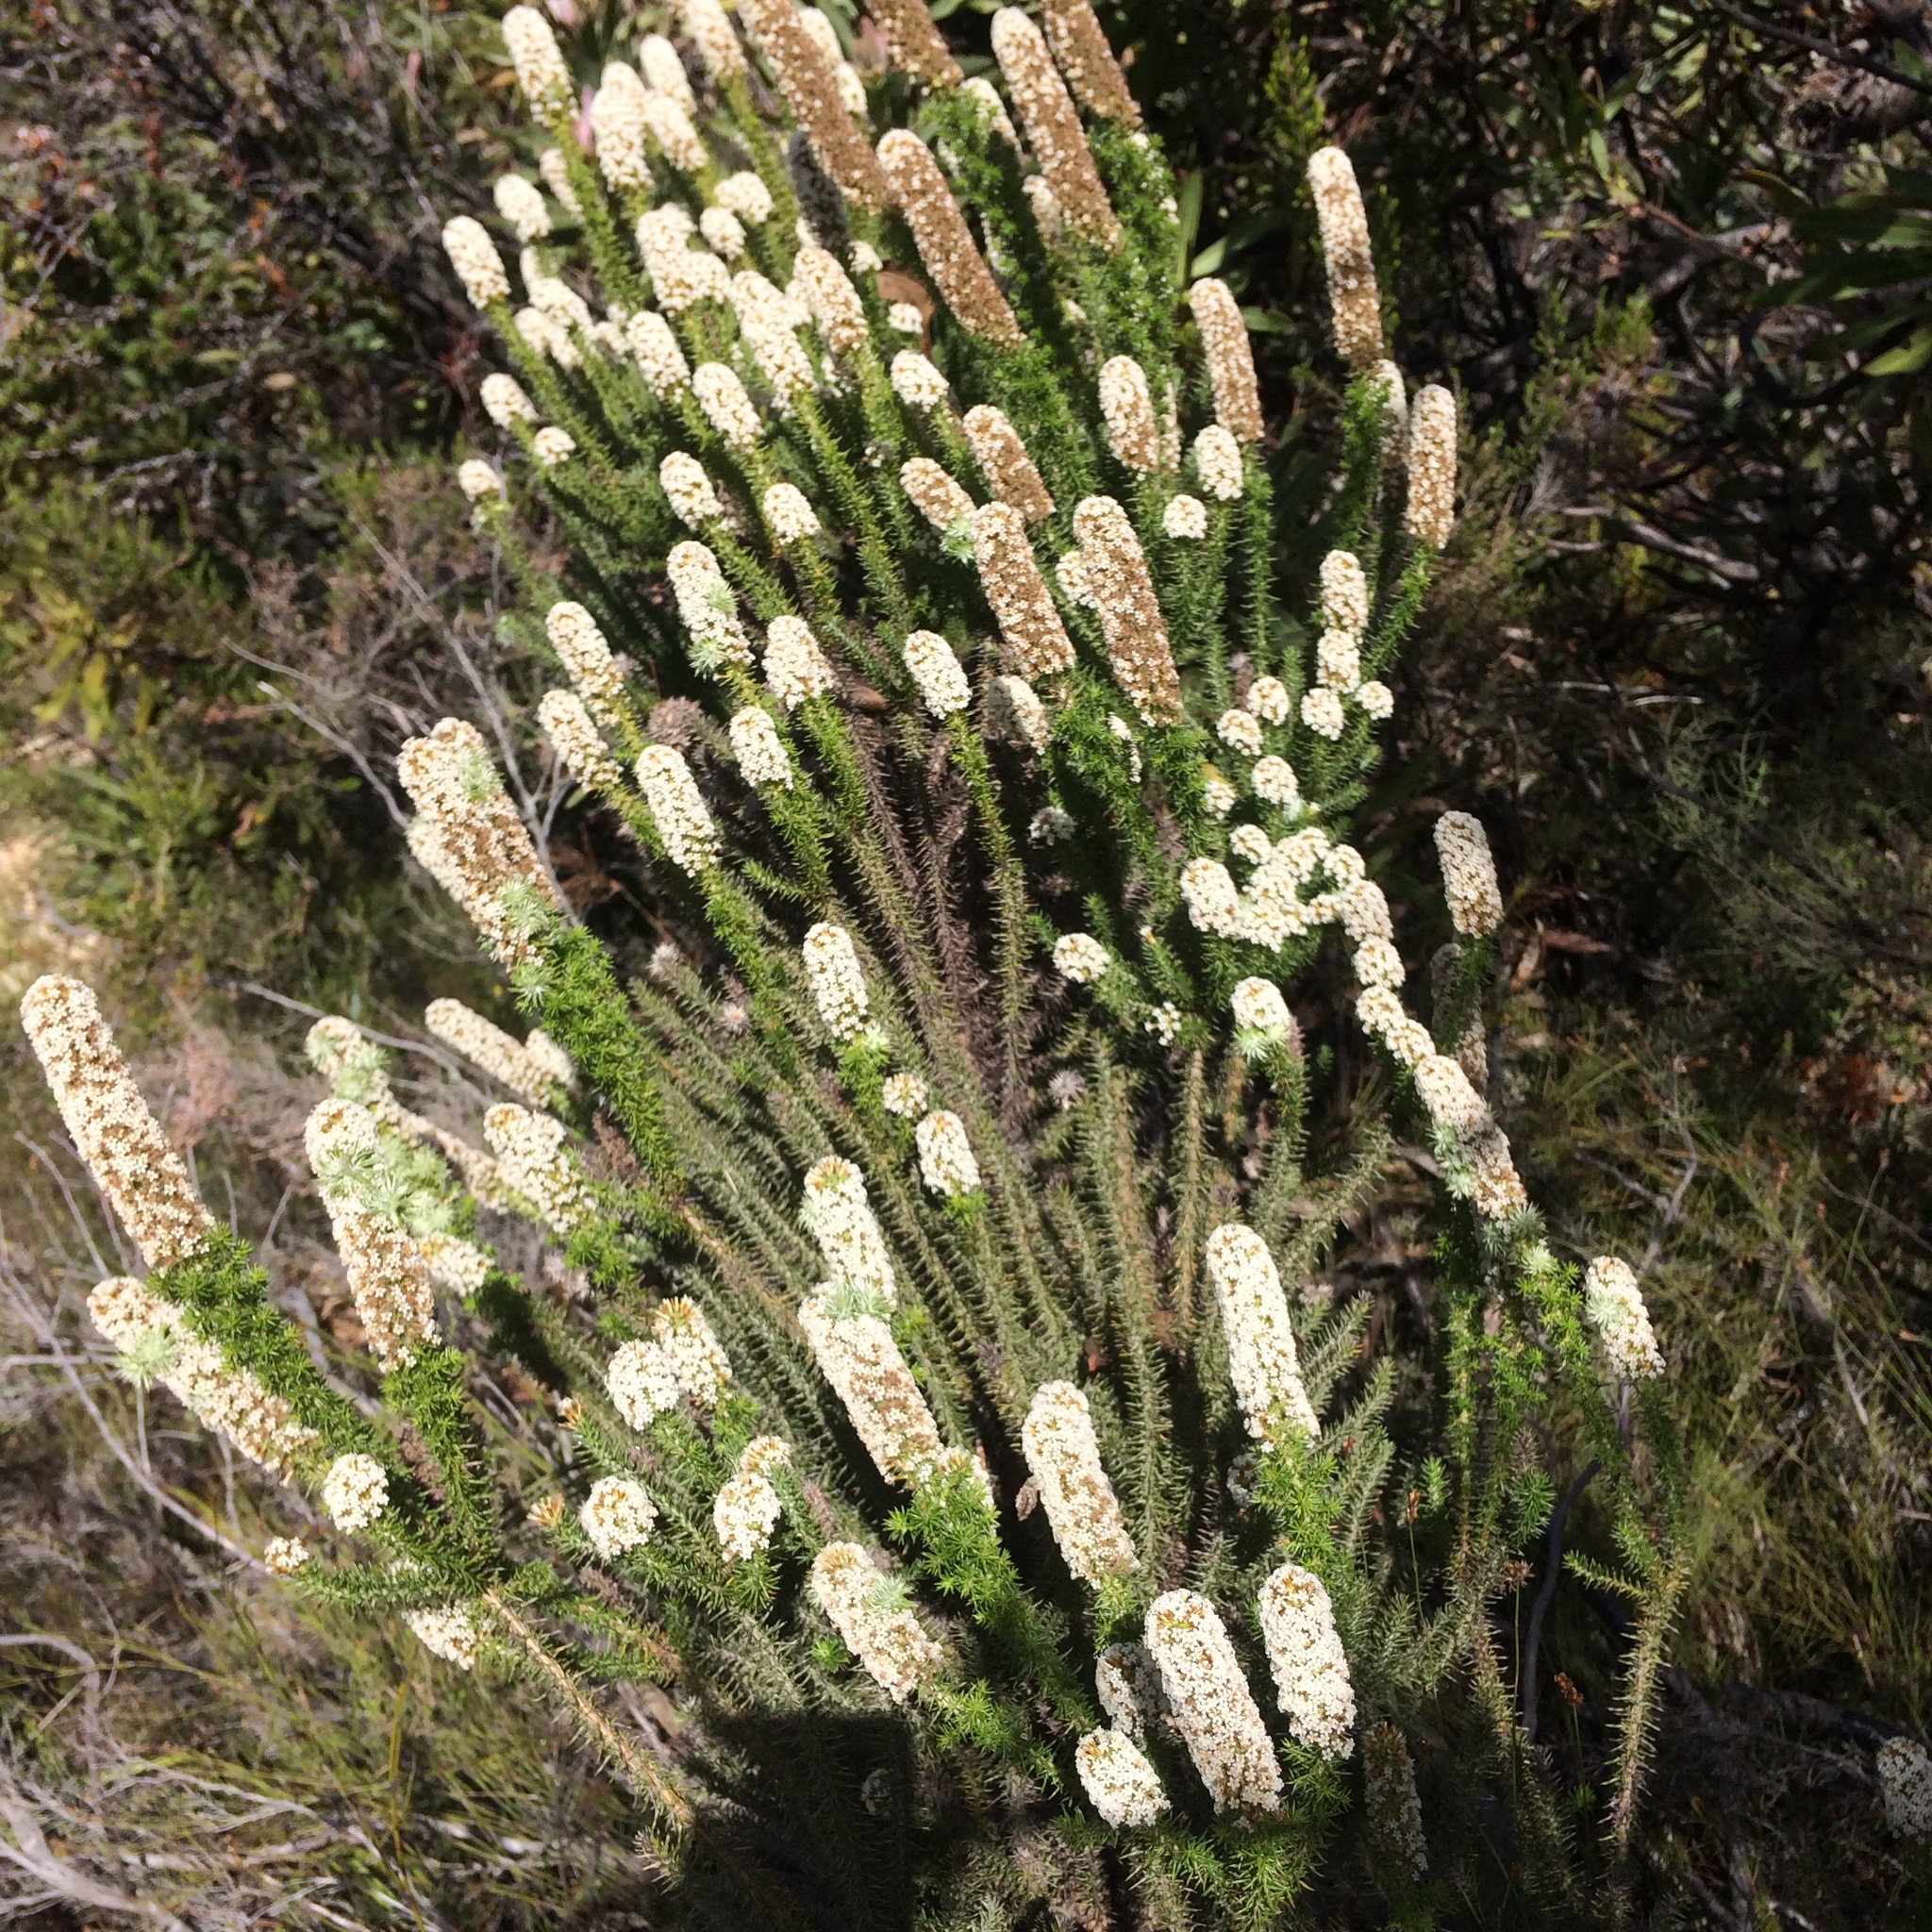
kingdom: Plantae
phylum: Tracheophyta
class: Magnoliopsida
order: Asterales
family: Asteraceae
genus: Stoebe
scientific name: Stoebe alopecuroides
